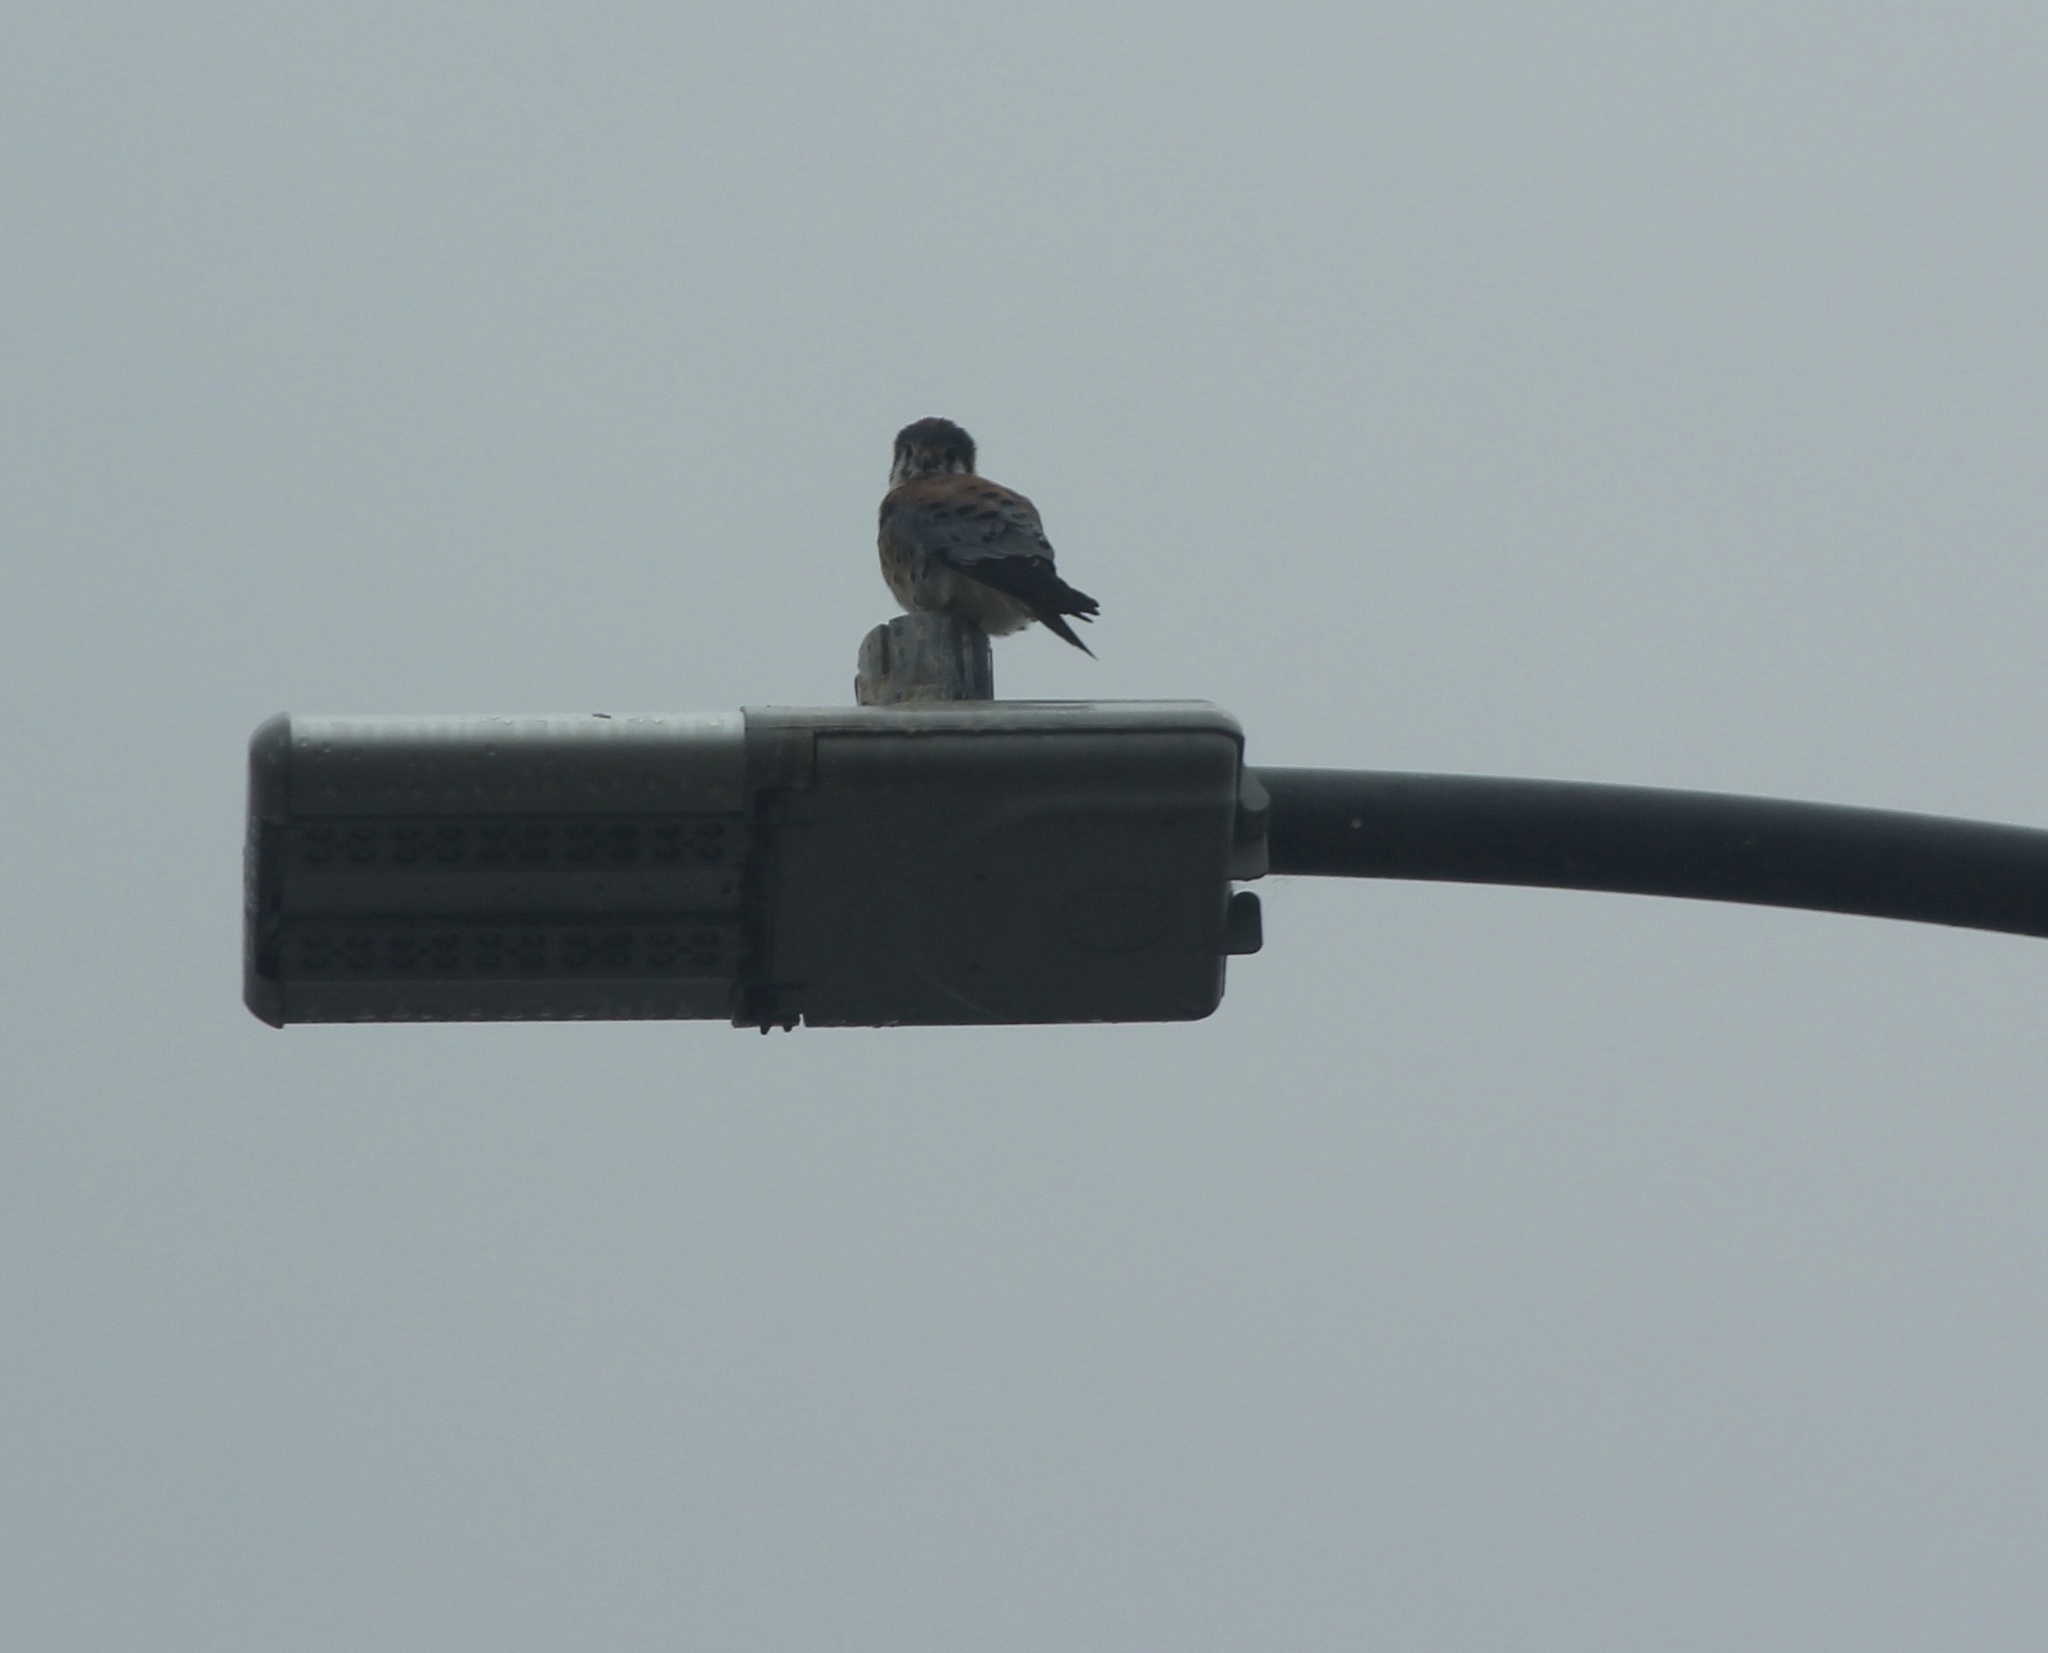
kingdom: Animalia
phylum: Chordata
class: Aves
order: Falconiformes
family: Falconidae
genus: Falco
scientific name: Falco sparverius
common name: American kestrel
